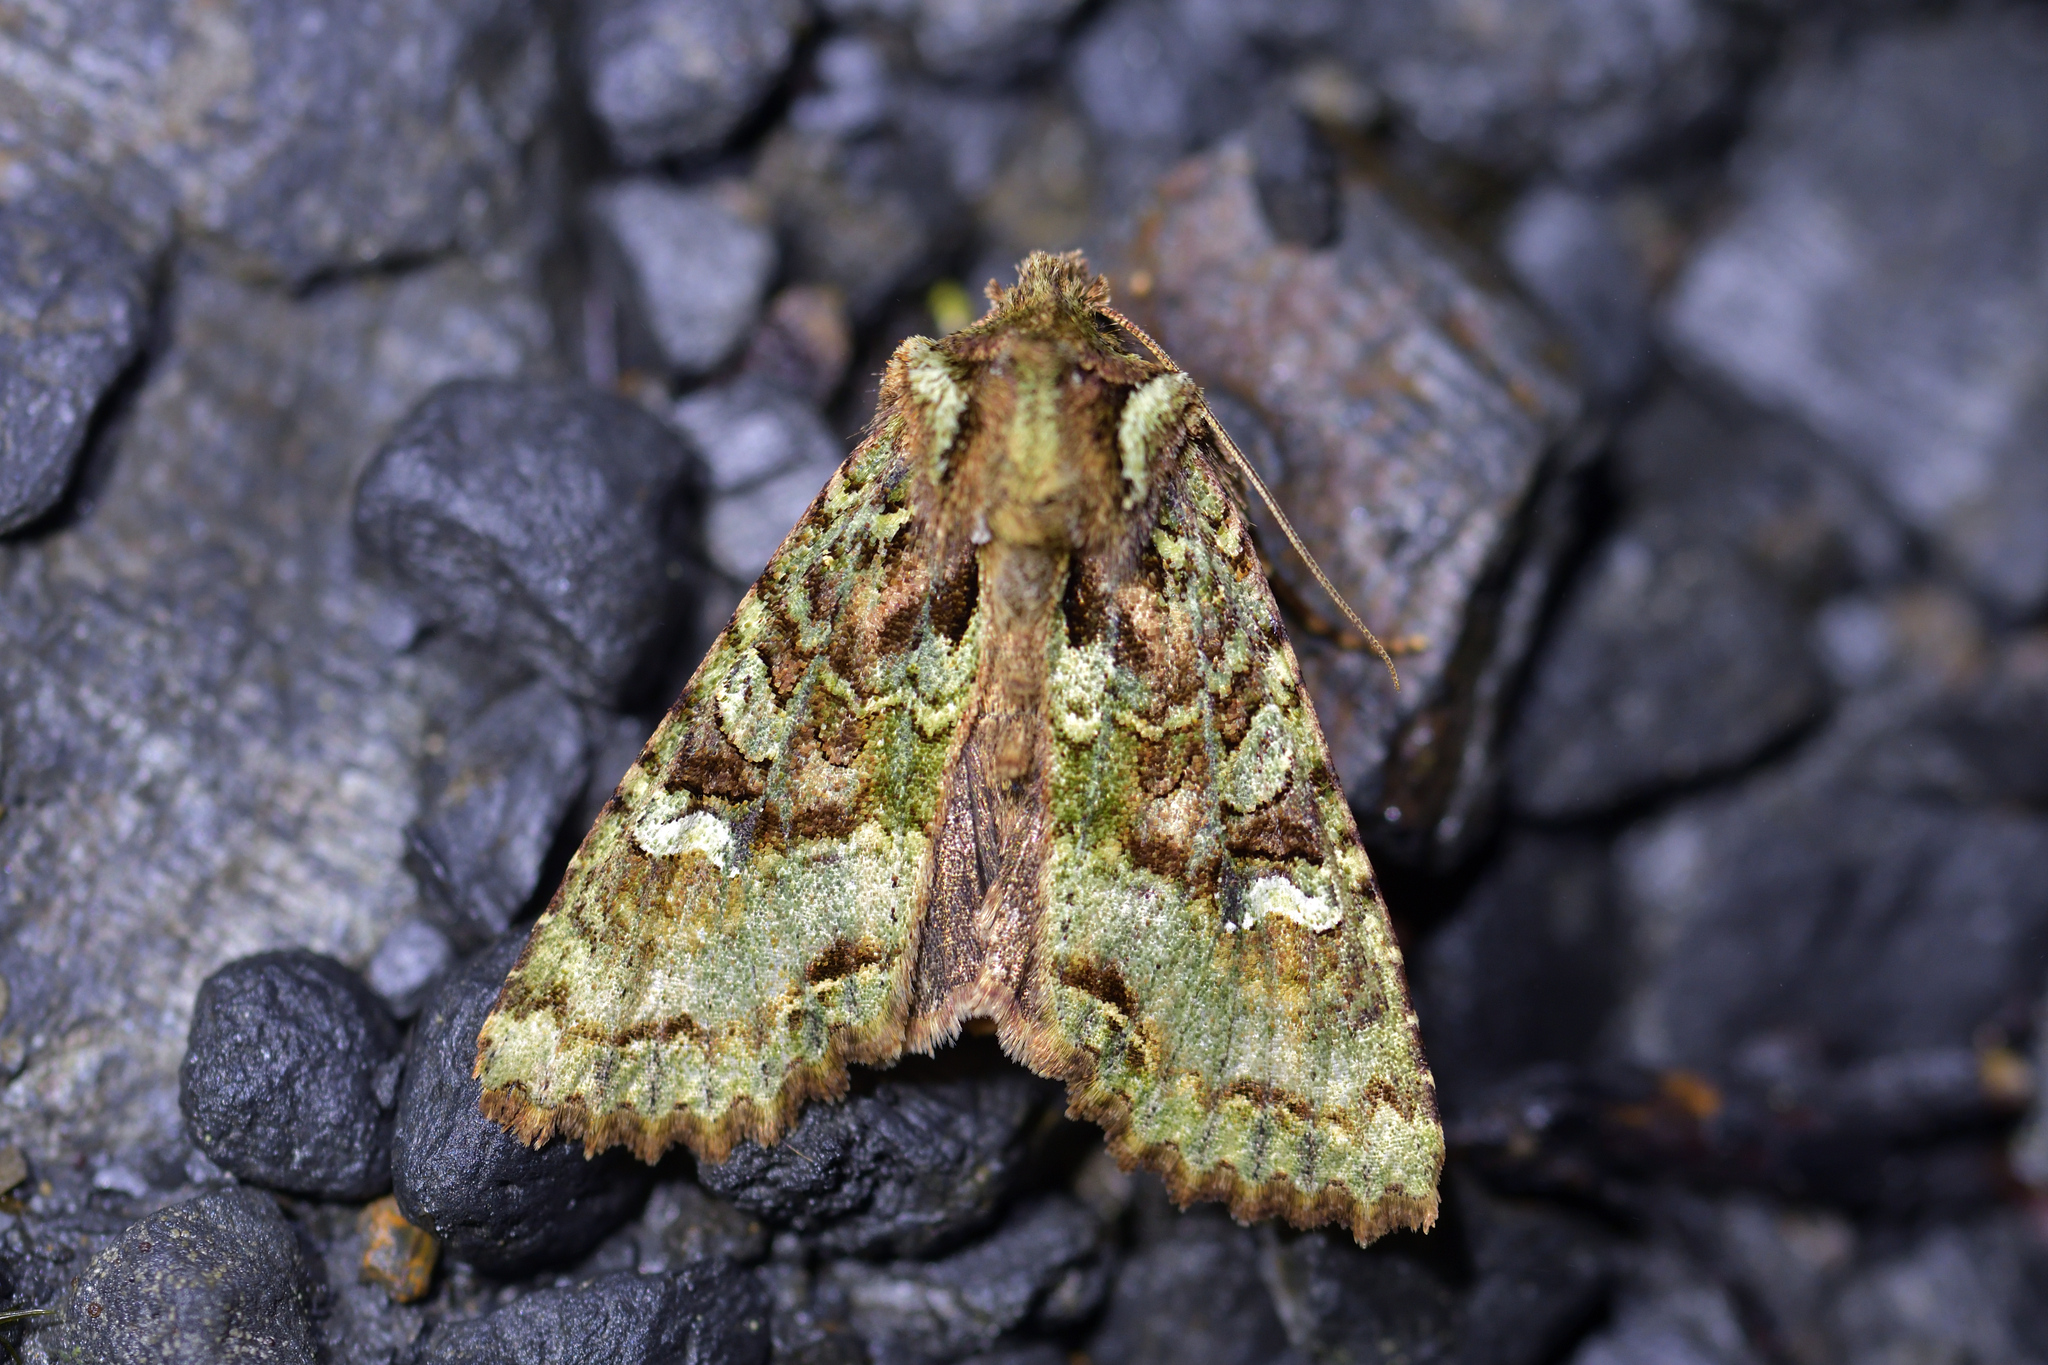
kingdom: Animalia
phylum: Arthropoda
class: Insecta
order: Lepidoptera
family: Noctuidae
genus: Meterana
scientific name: Meterana
